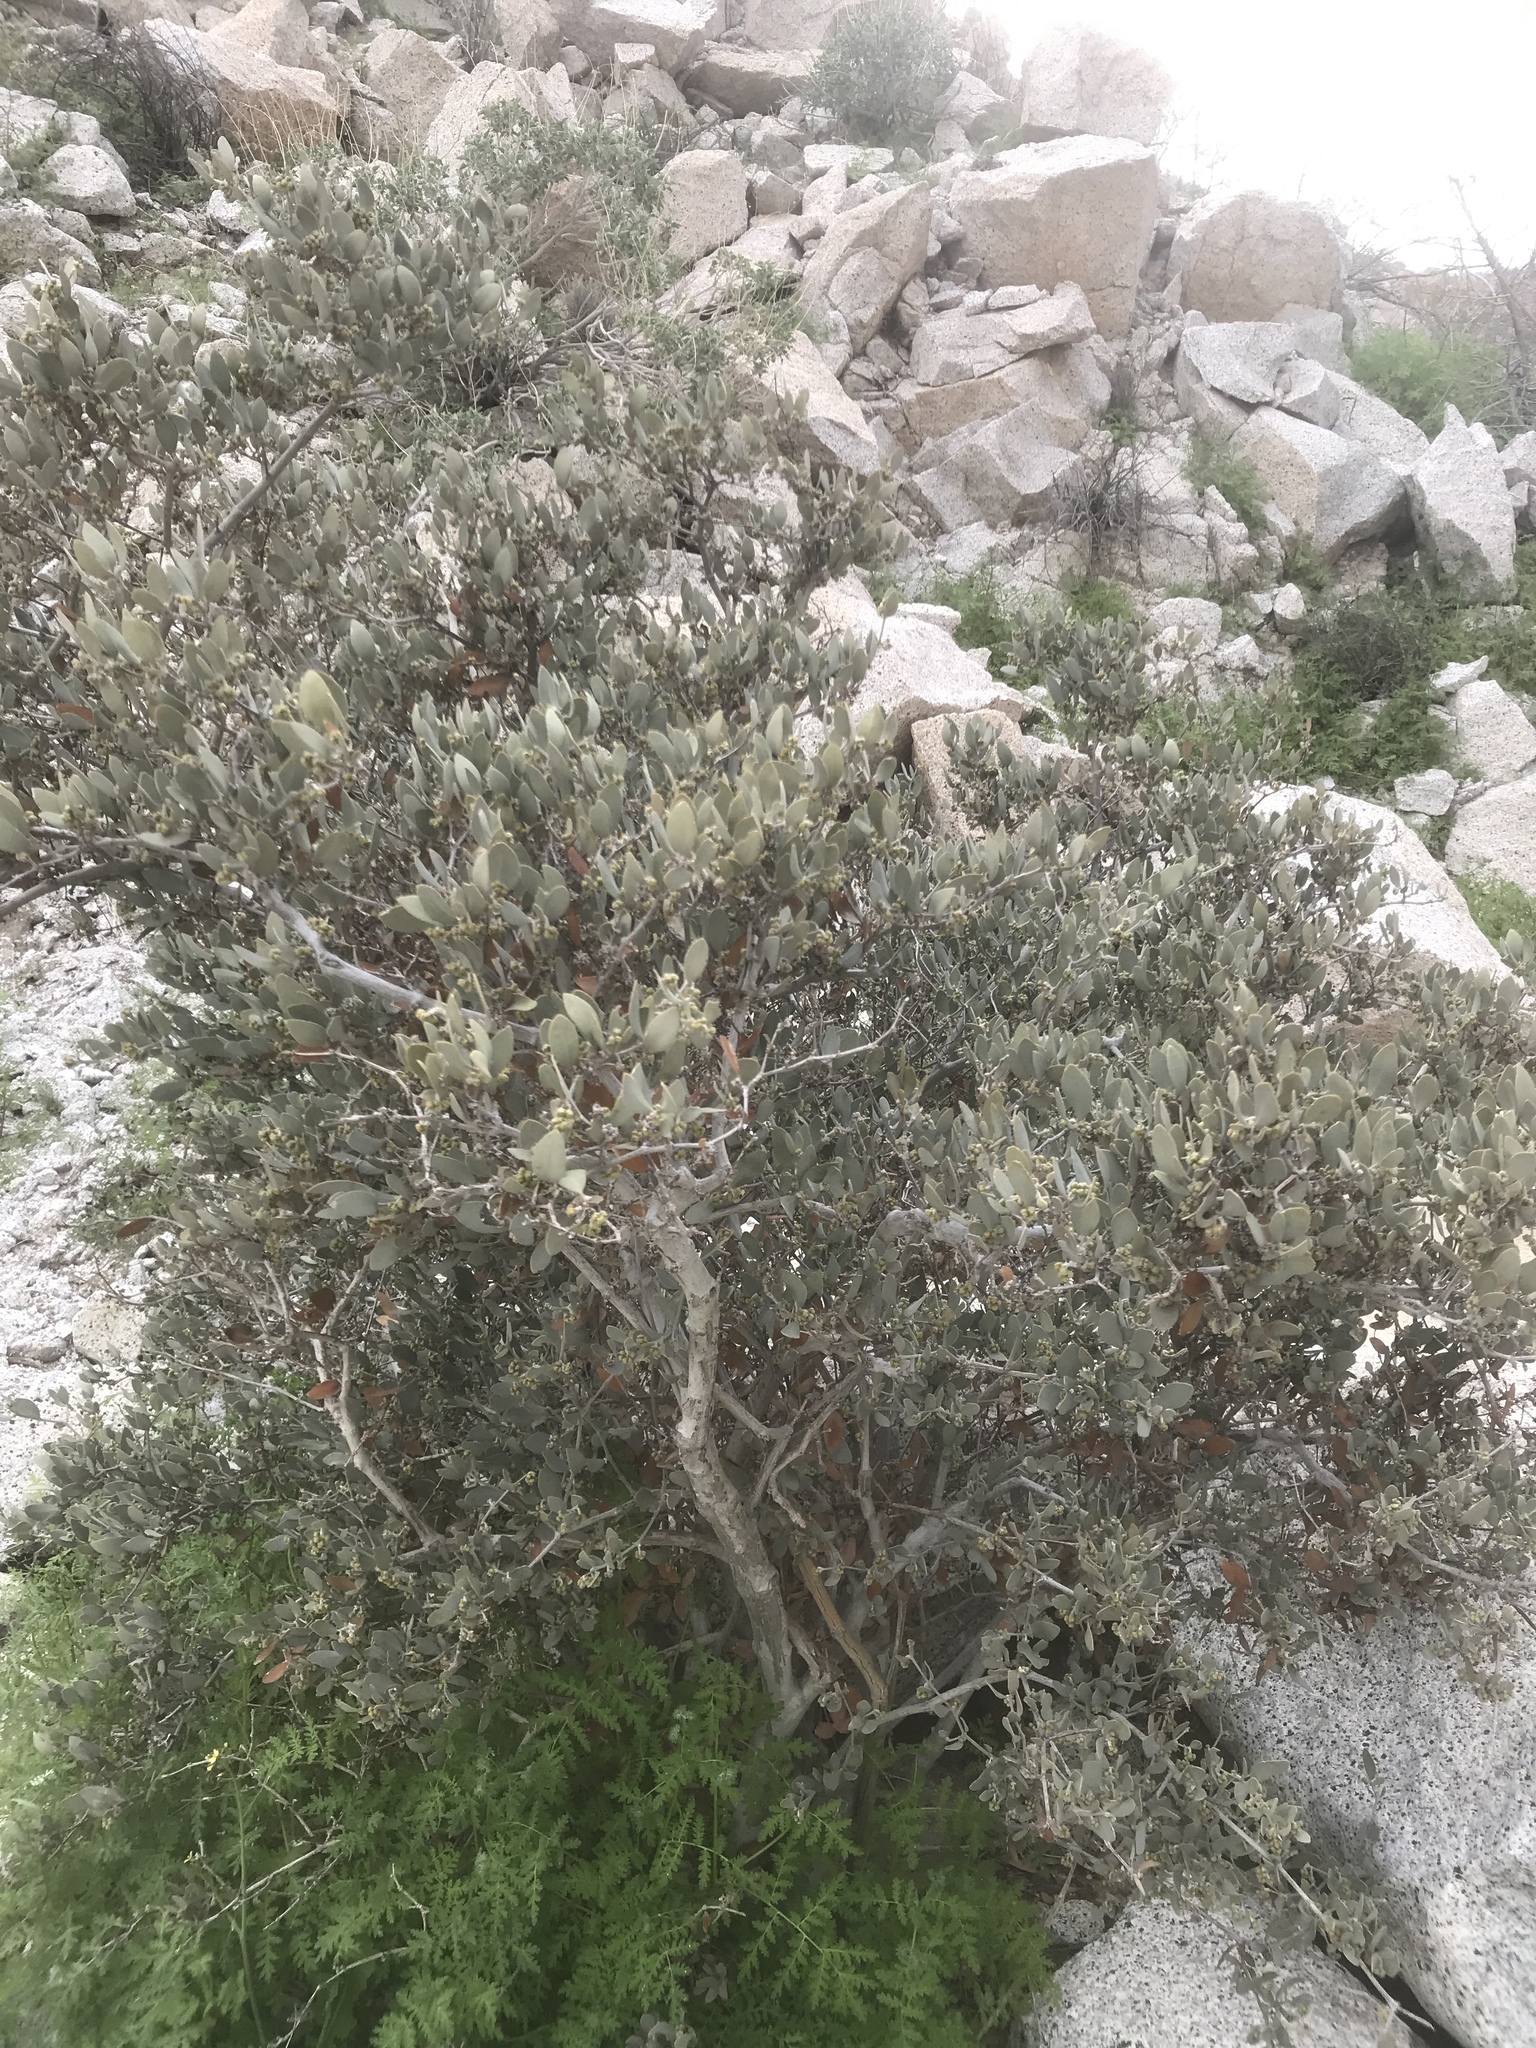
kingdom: Plantae
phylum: Tracheophyta
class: Magnoliopsida
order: Caryophyllales
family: Simmondsiaceae
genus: Simmondsia
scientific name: Simmondsia chinensis
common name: Jojoba
